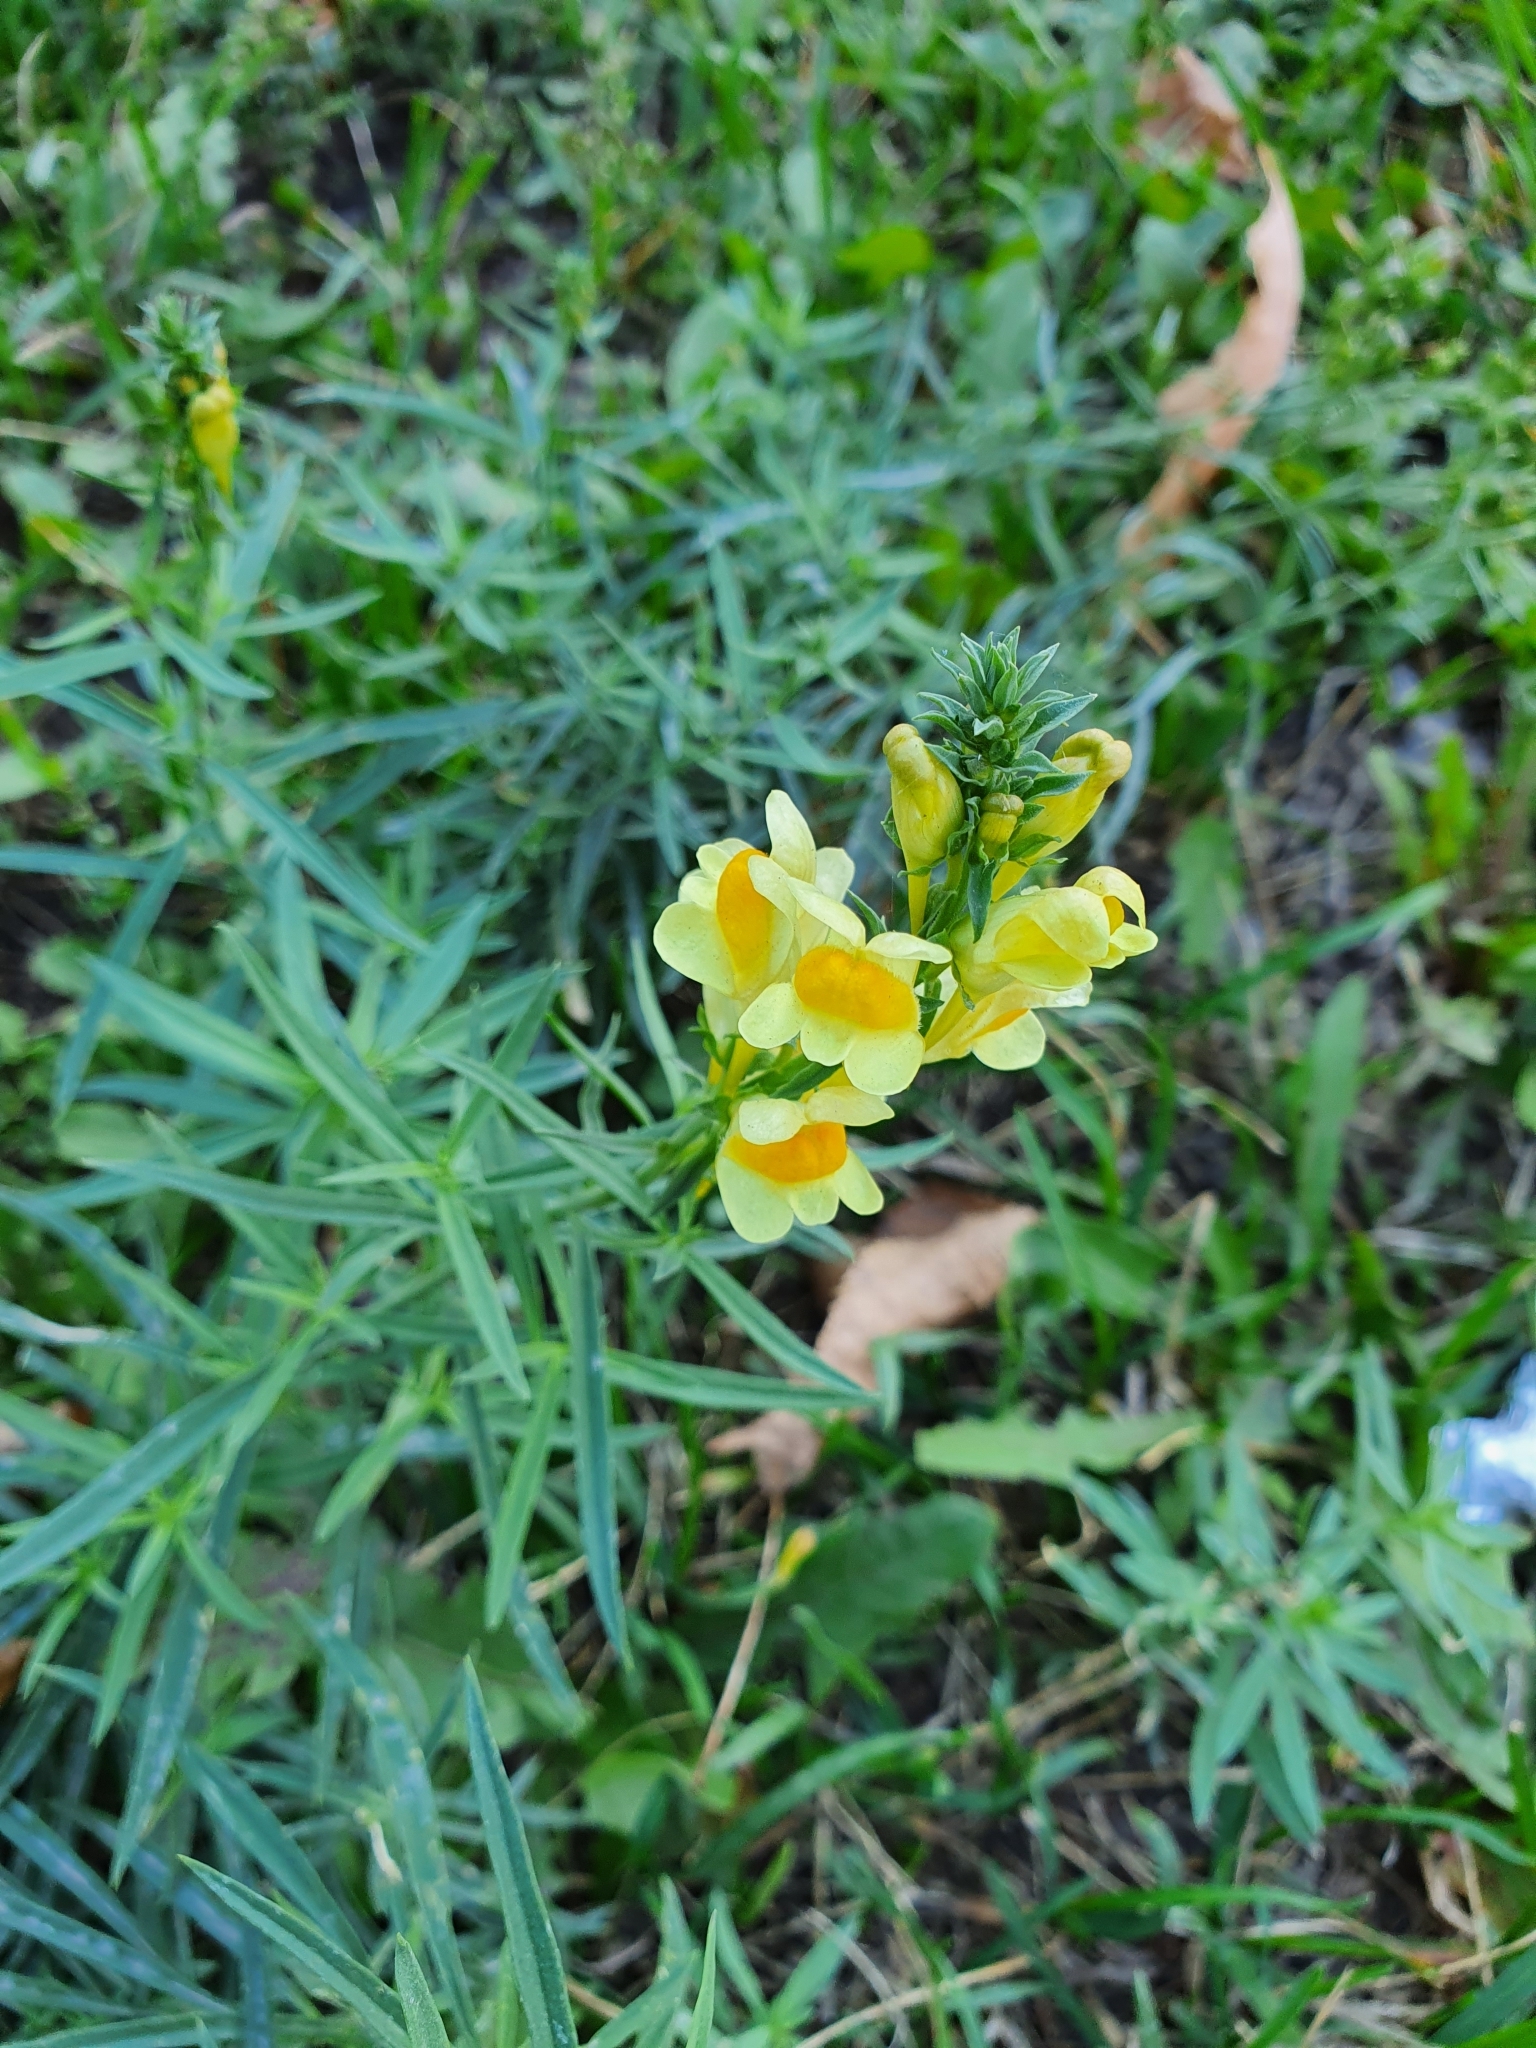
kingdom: Plantae
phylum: Tracheophyta
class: Magnoliopsida
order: Lamiales
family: Plantaginaceae
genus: Linaria
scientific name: Linaria vulgaris
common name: Butter and eggs
